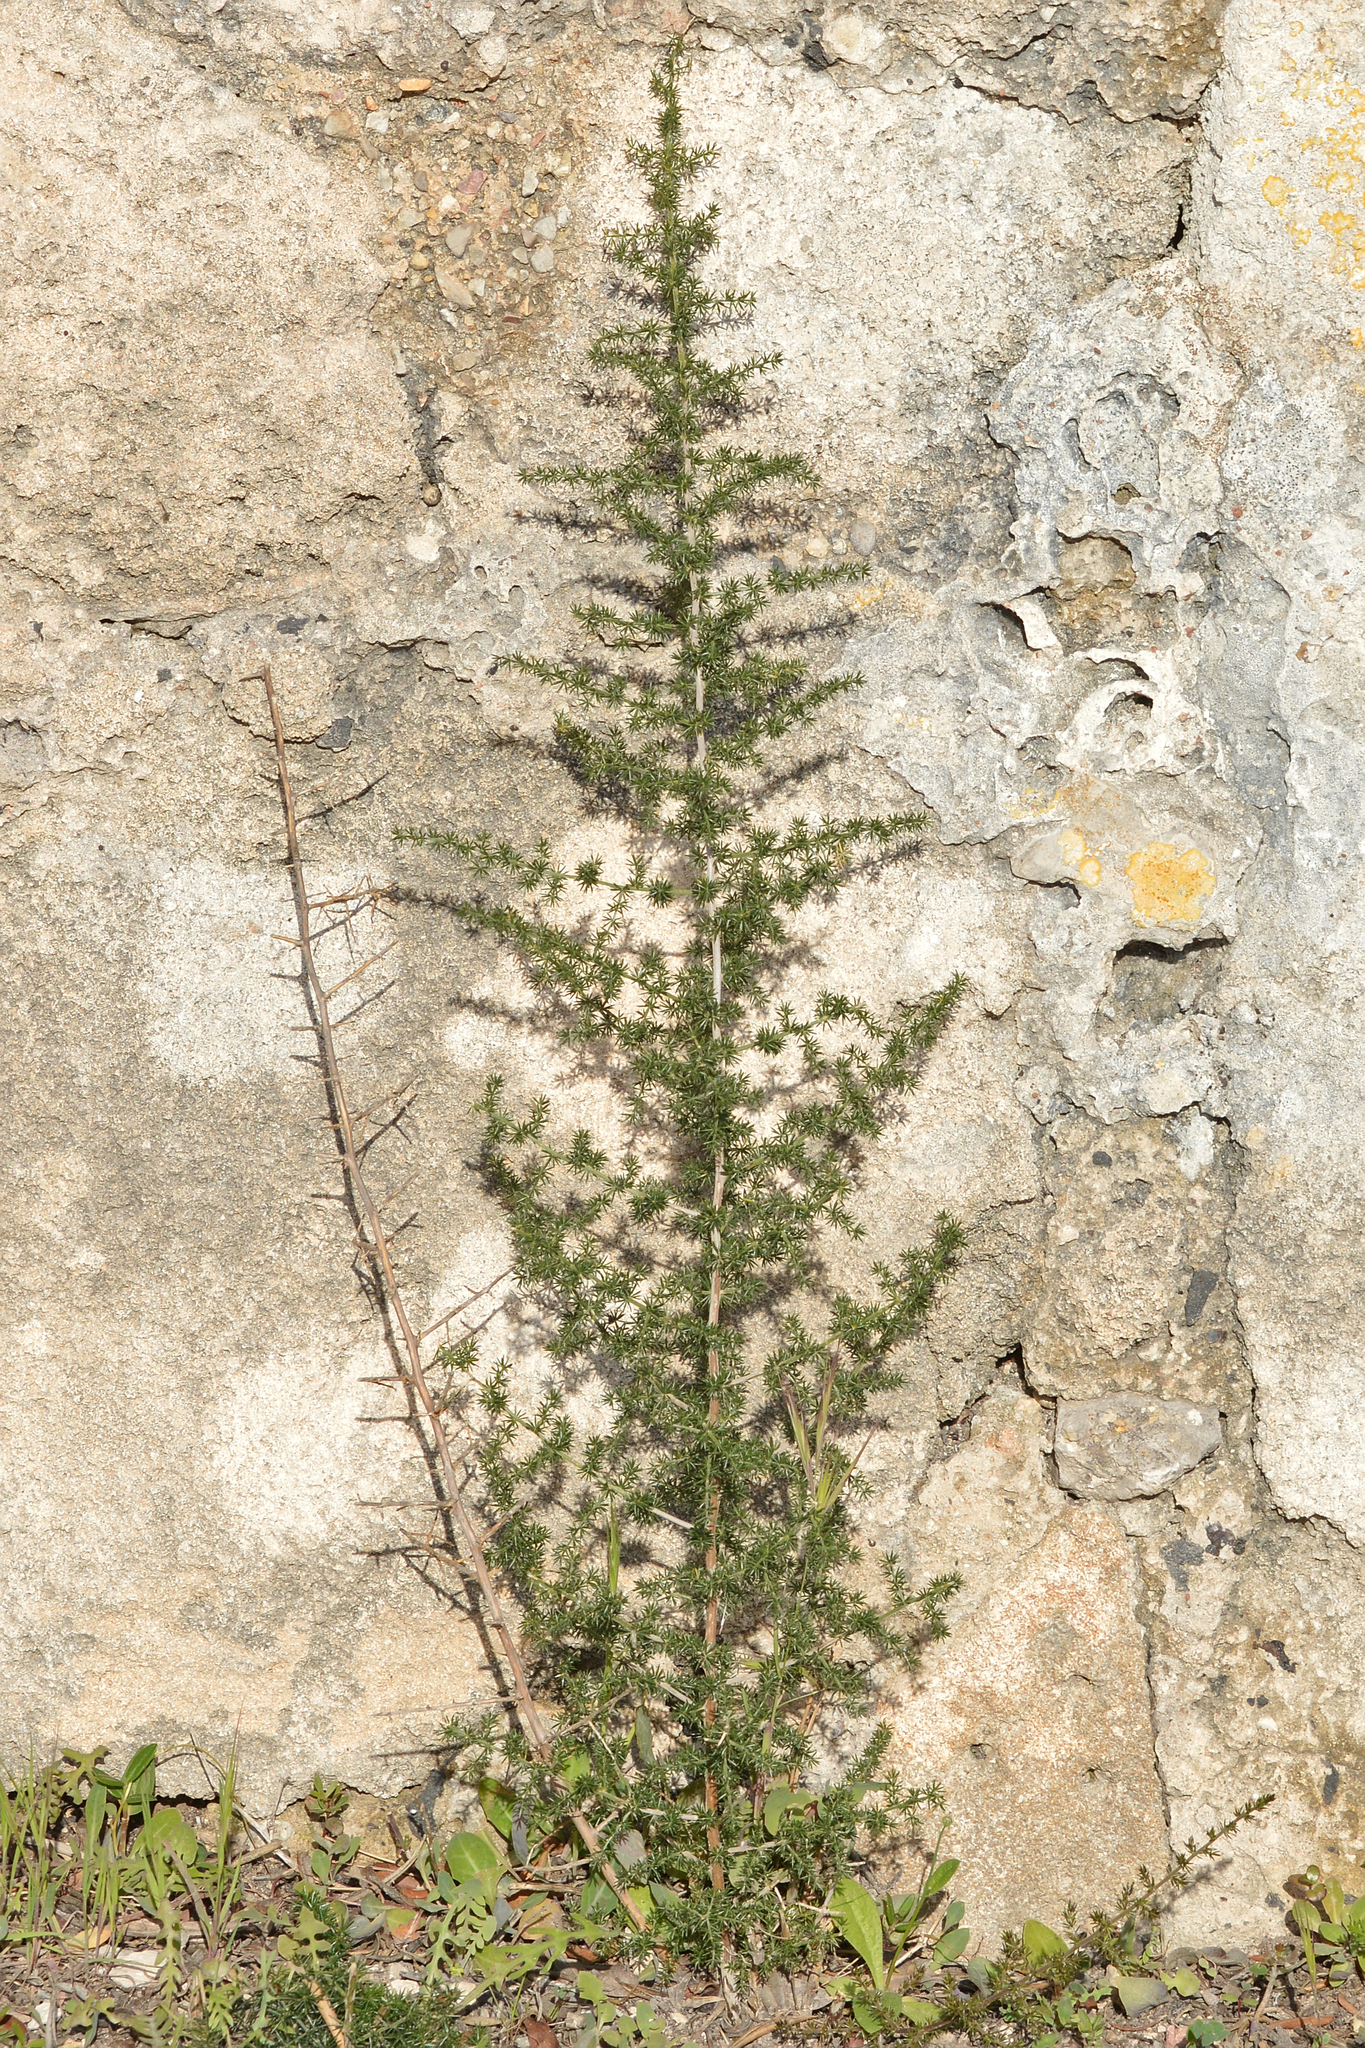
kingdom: Plantae
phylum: Tracheophyta
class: Liliopsida
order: Asparagales
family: Asparagaceae
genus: Asparagus
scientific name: Asparagus acutifolius
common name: Wild asparagus
